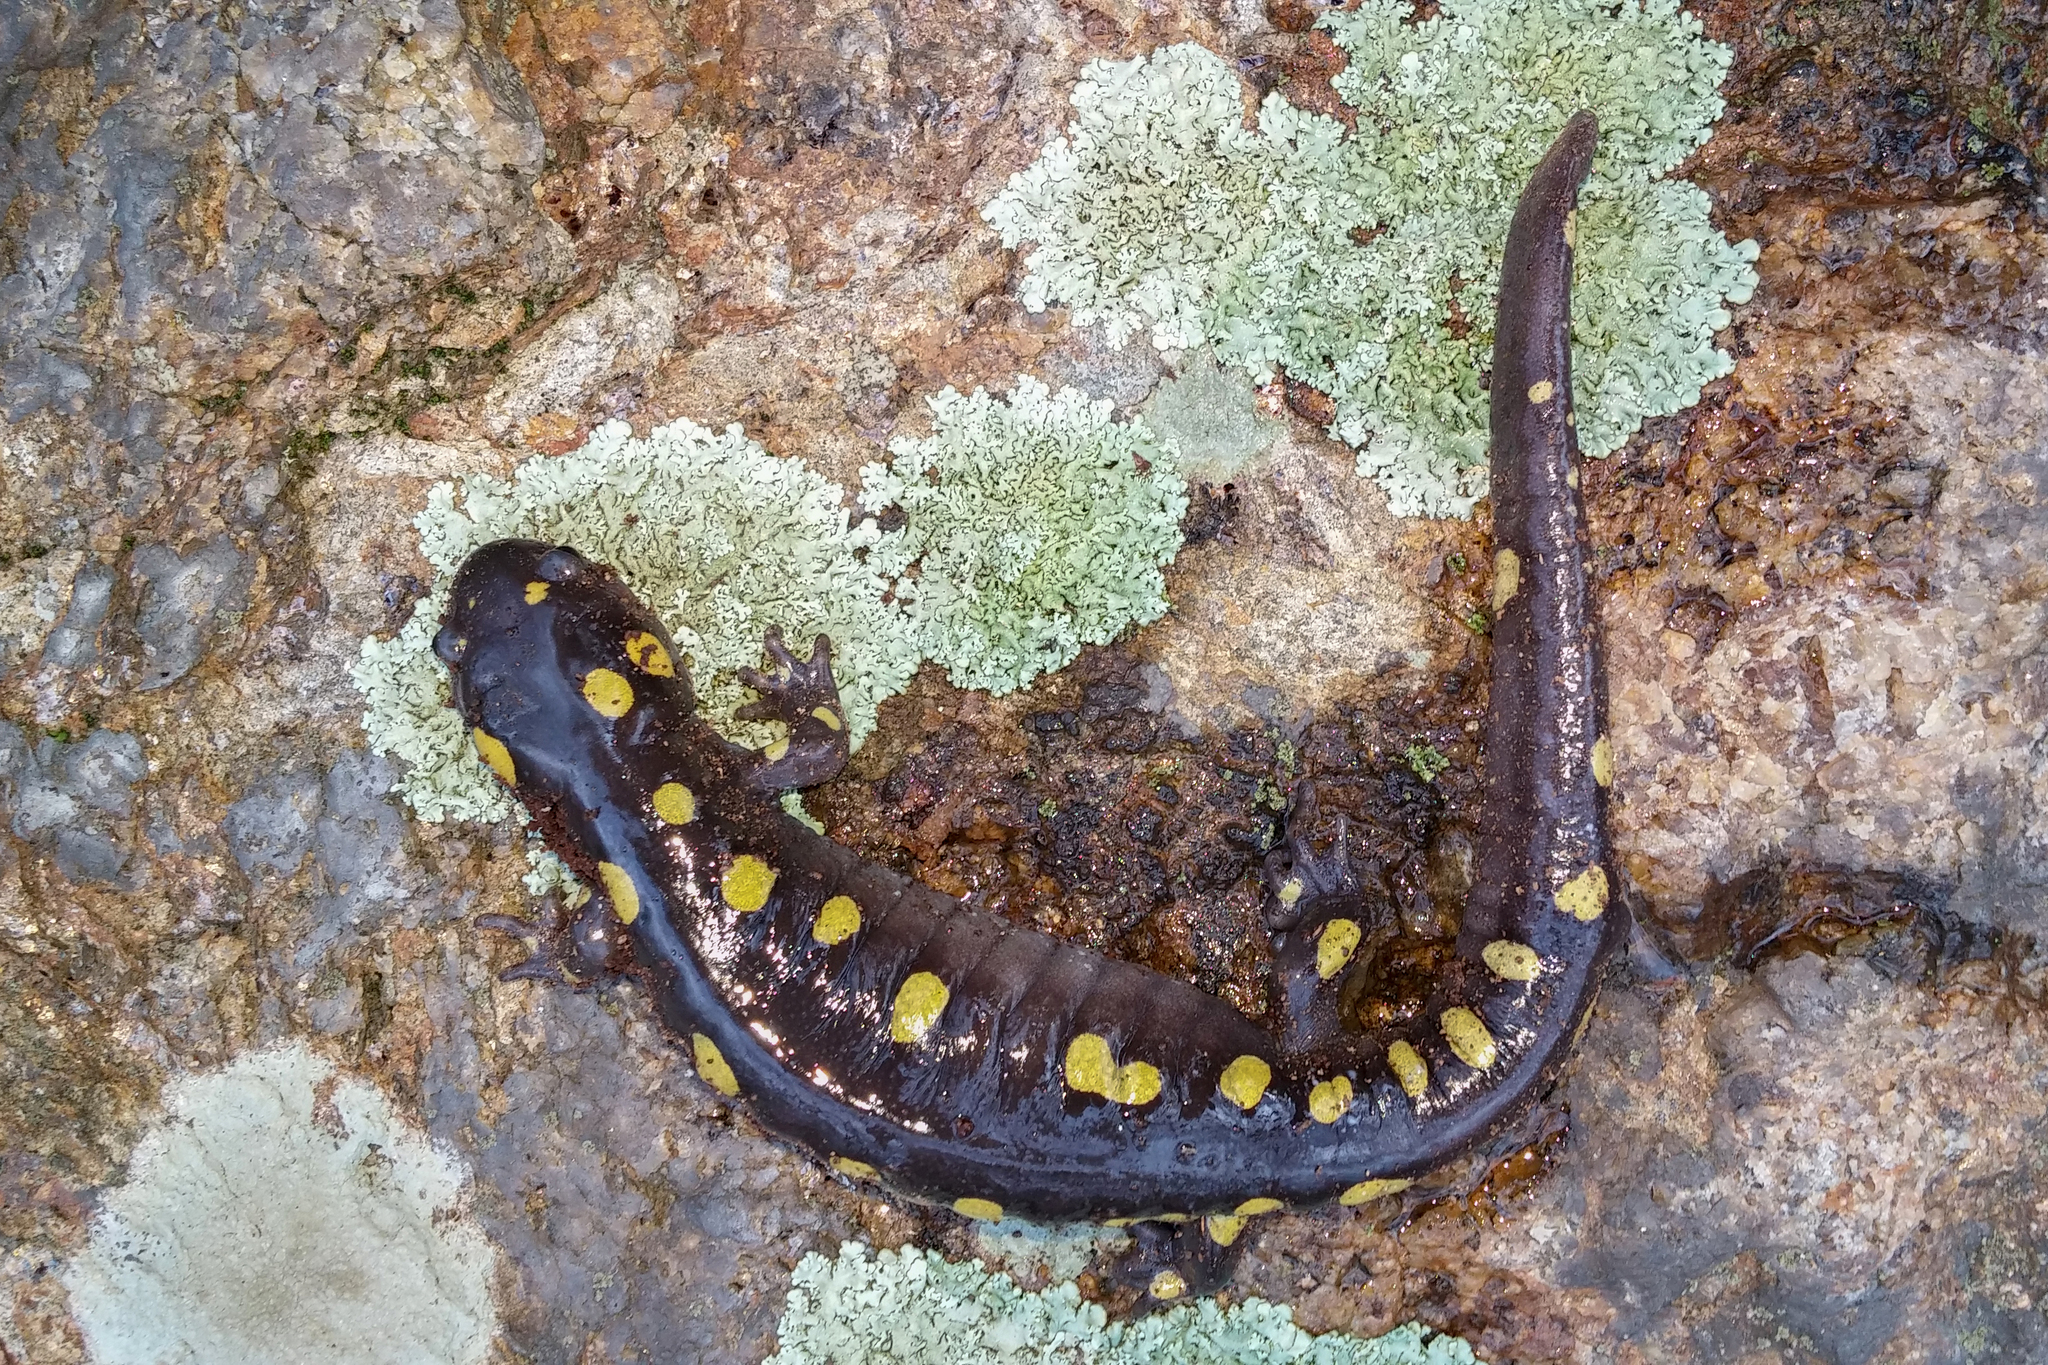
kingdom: Animalia
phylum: Chordata
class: Amphibia
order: Caudata
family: Ambystomatidae
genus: Ambystoma
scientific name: Ambystoma maculatum
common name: Spotted salamander
